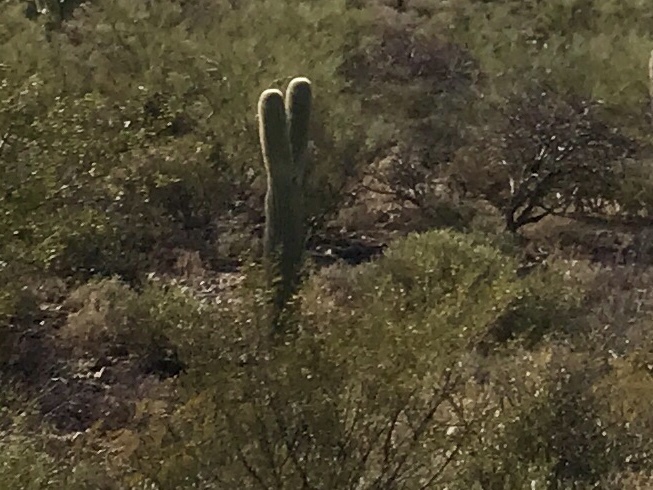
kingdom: Plantae
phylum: Tracheophyta
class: Magnoliopsida
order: Caryophyllales
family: Cactaceae
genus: Carnegiea
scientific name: Carnegiea gigantea
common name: Saguaro
